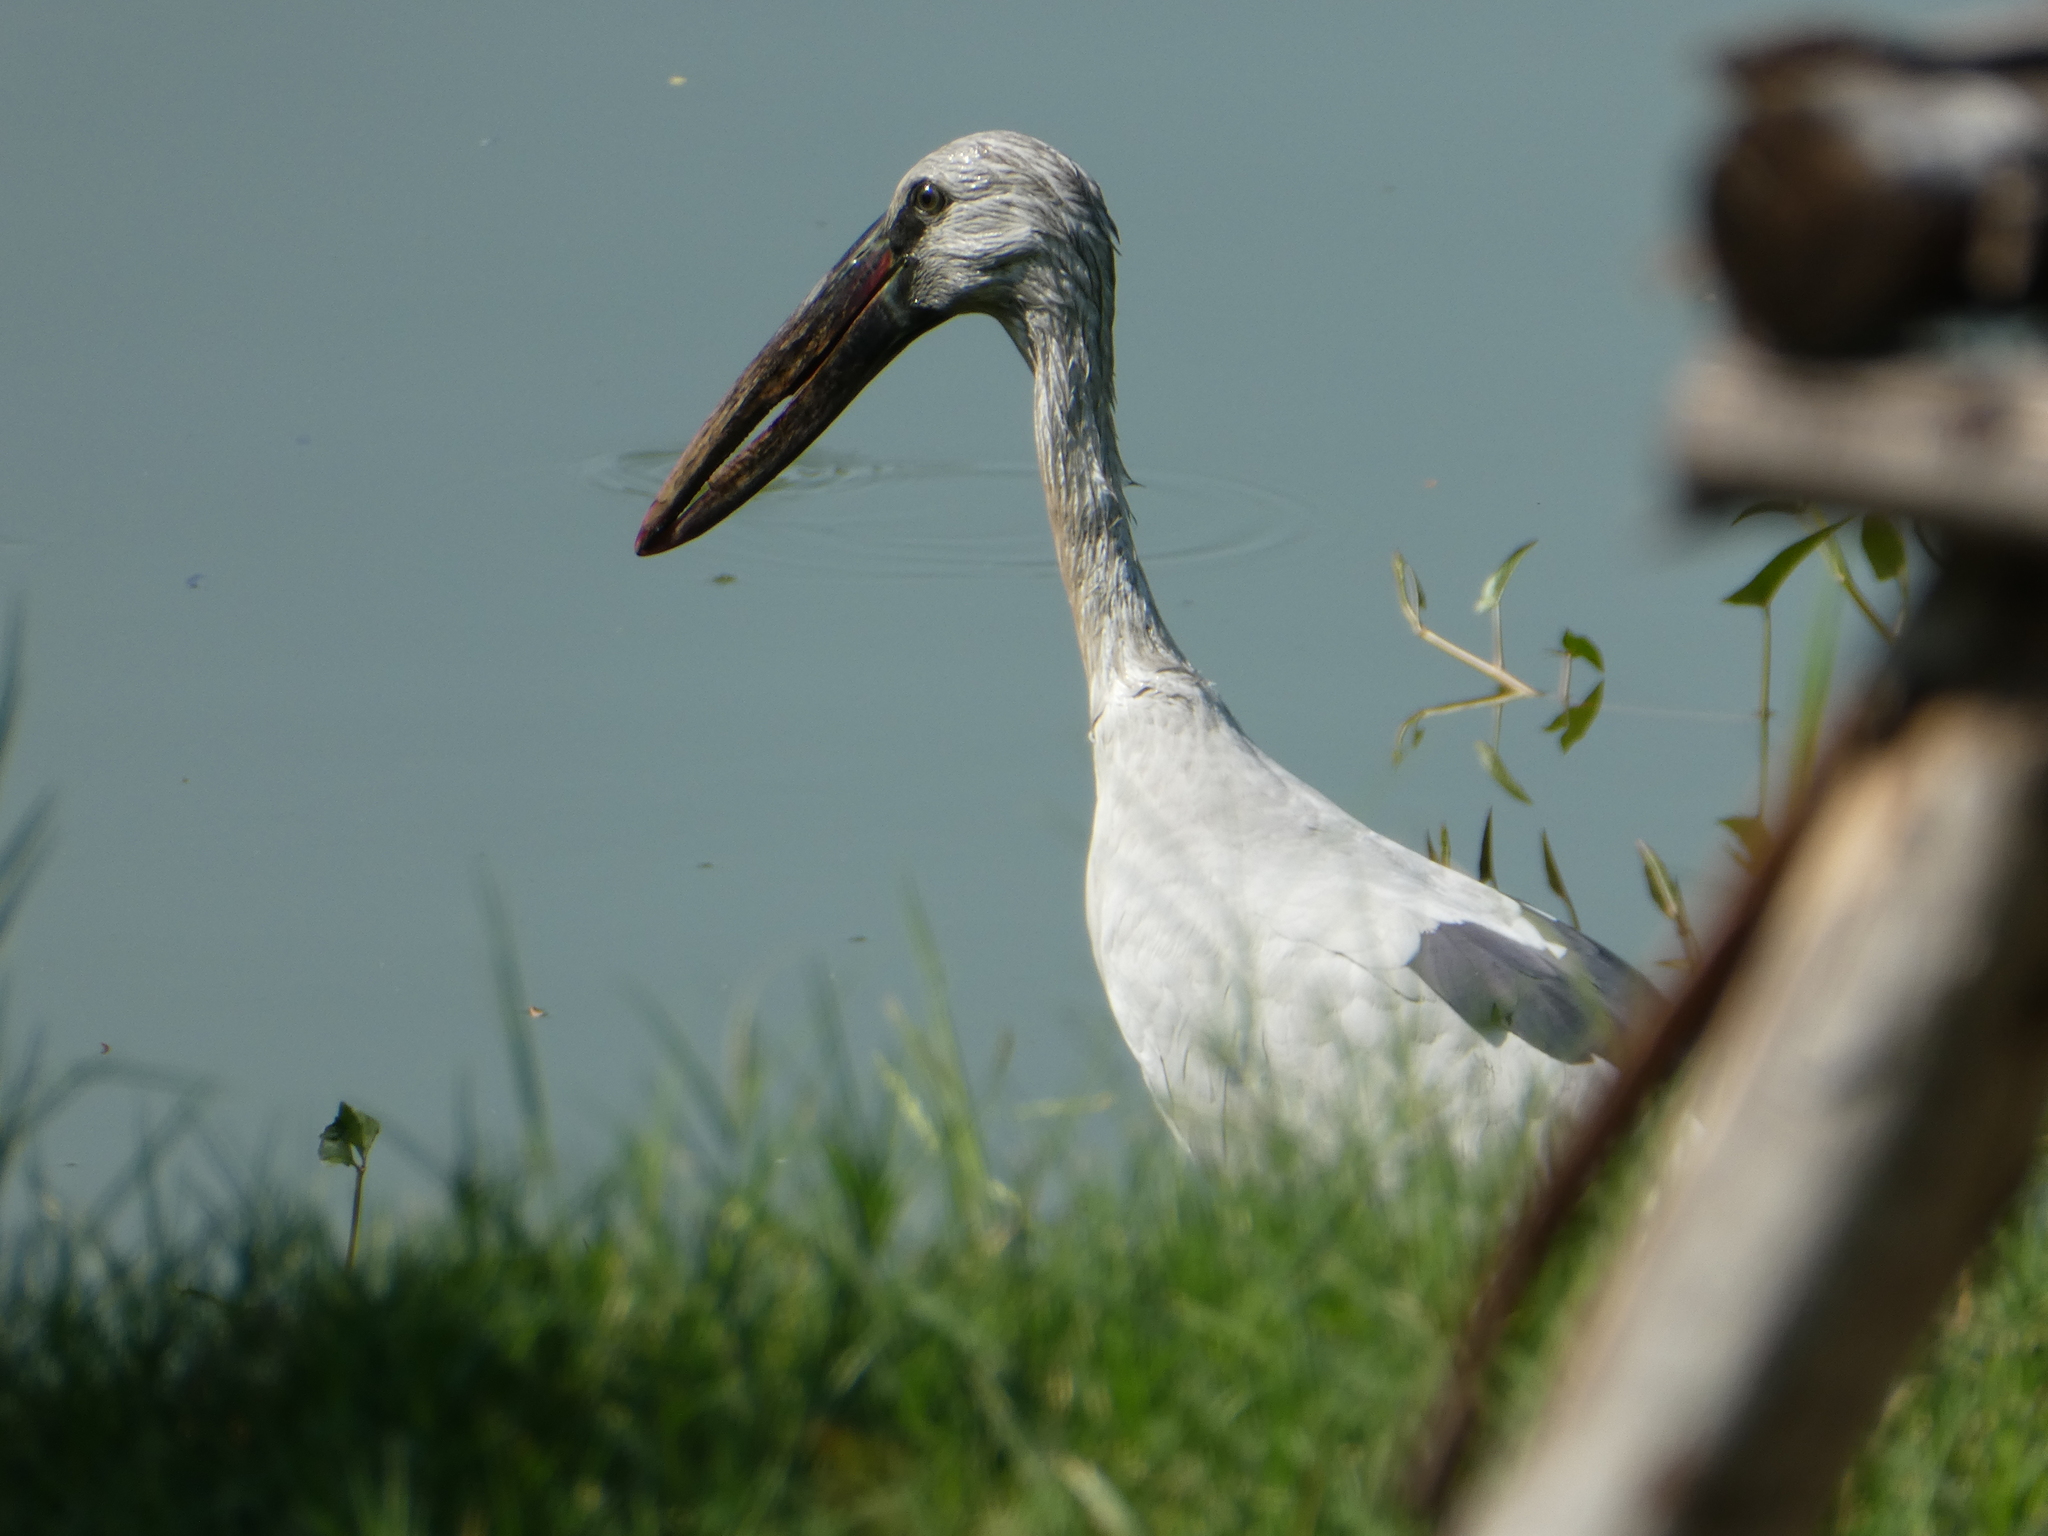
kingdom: Animalia
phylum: Chordata
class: Aves
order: Ciconiiformes
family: Ciconiidae
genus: Anastomus
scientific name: Anastomus oscitans
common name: Asian openbill
